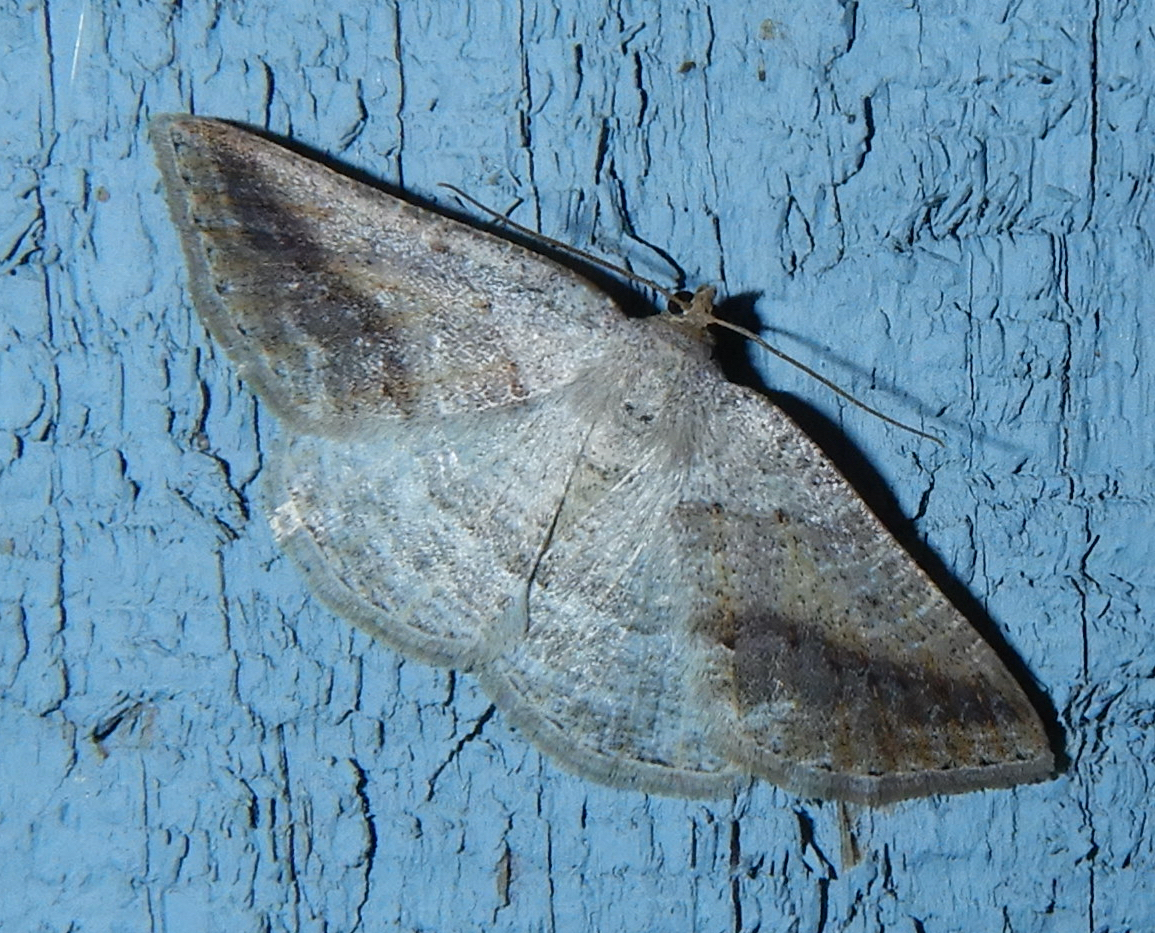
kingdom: Animalia
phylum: Arthropoda
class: Insecta
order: Lepidoptera
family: Geometridae
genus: Tacparia
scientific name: Tacparia detersata
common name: Pale alder moth
